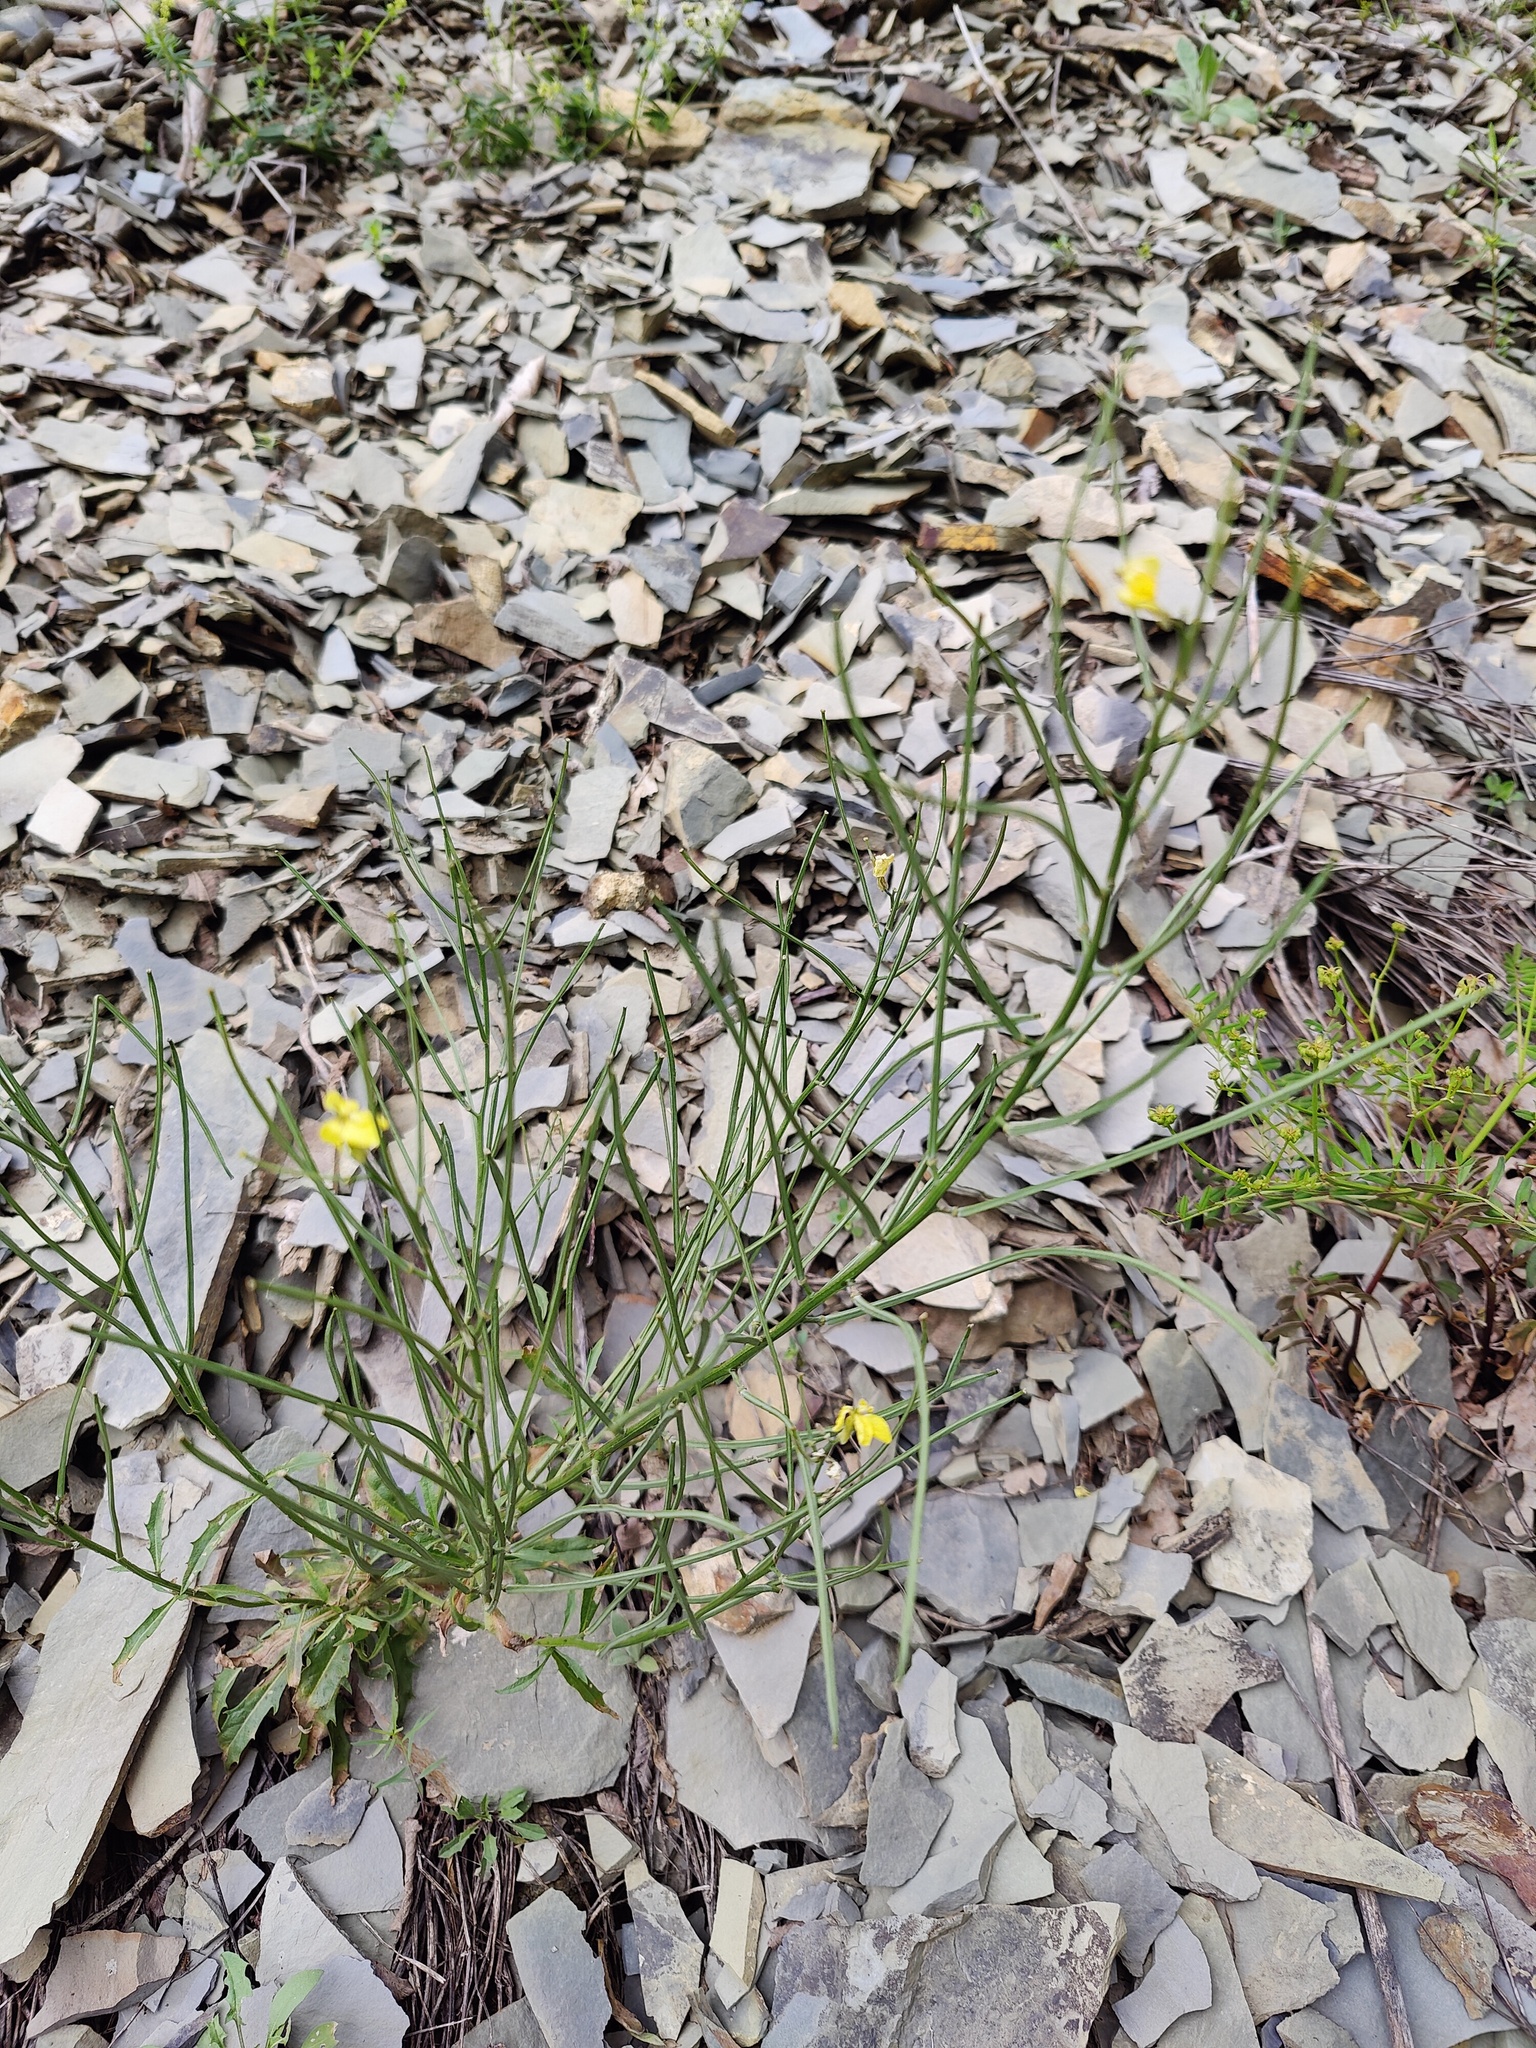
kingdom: Plantae
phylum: Tracheophyta
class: Magnoliopsida
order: Brassicales
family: Brassicaceae
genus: Erysimum
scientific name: Erysimum callicarpum
